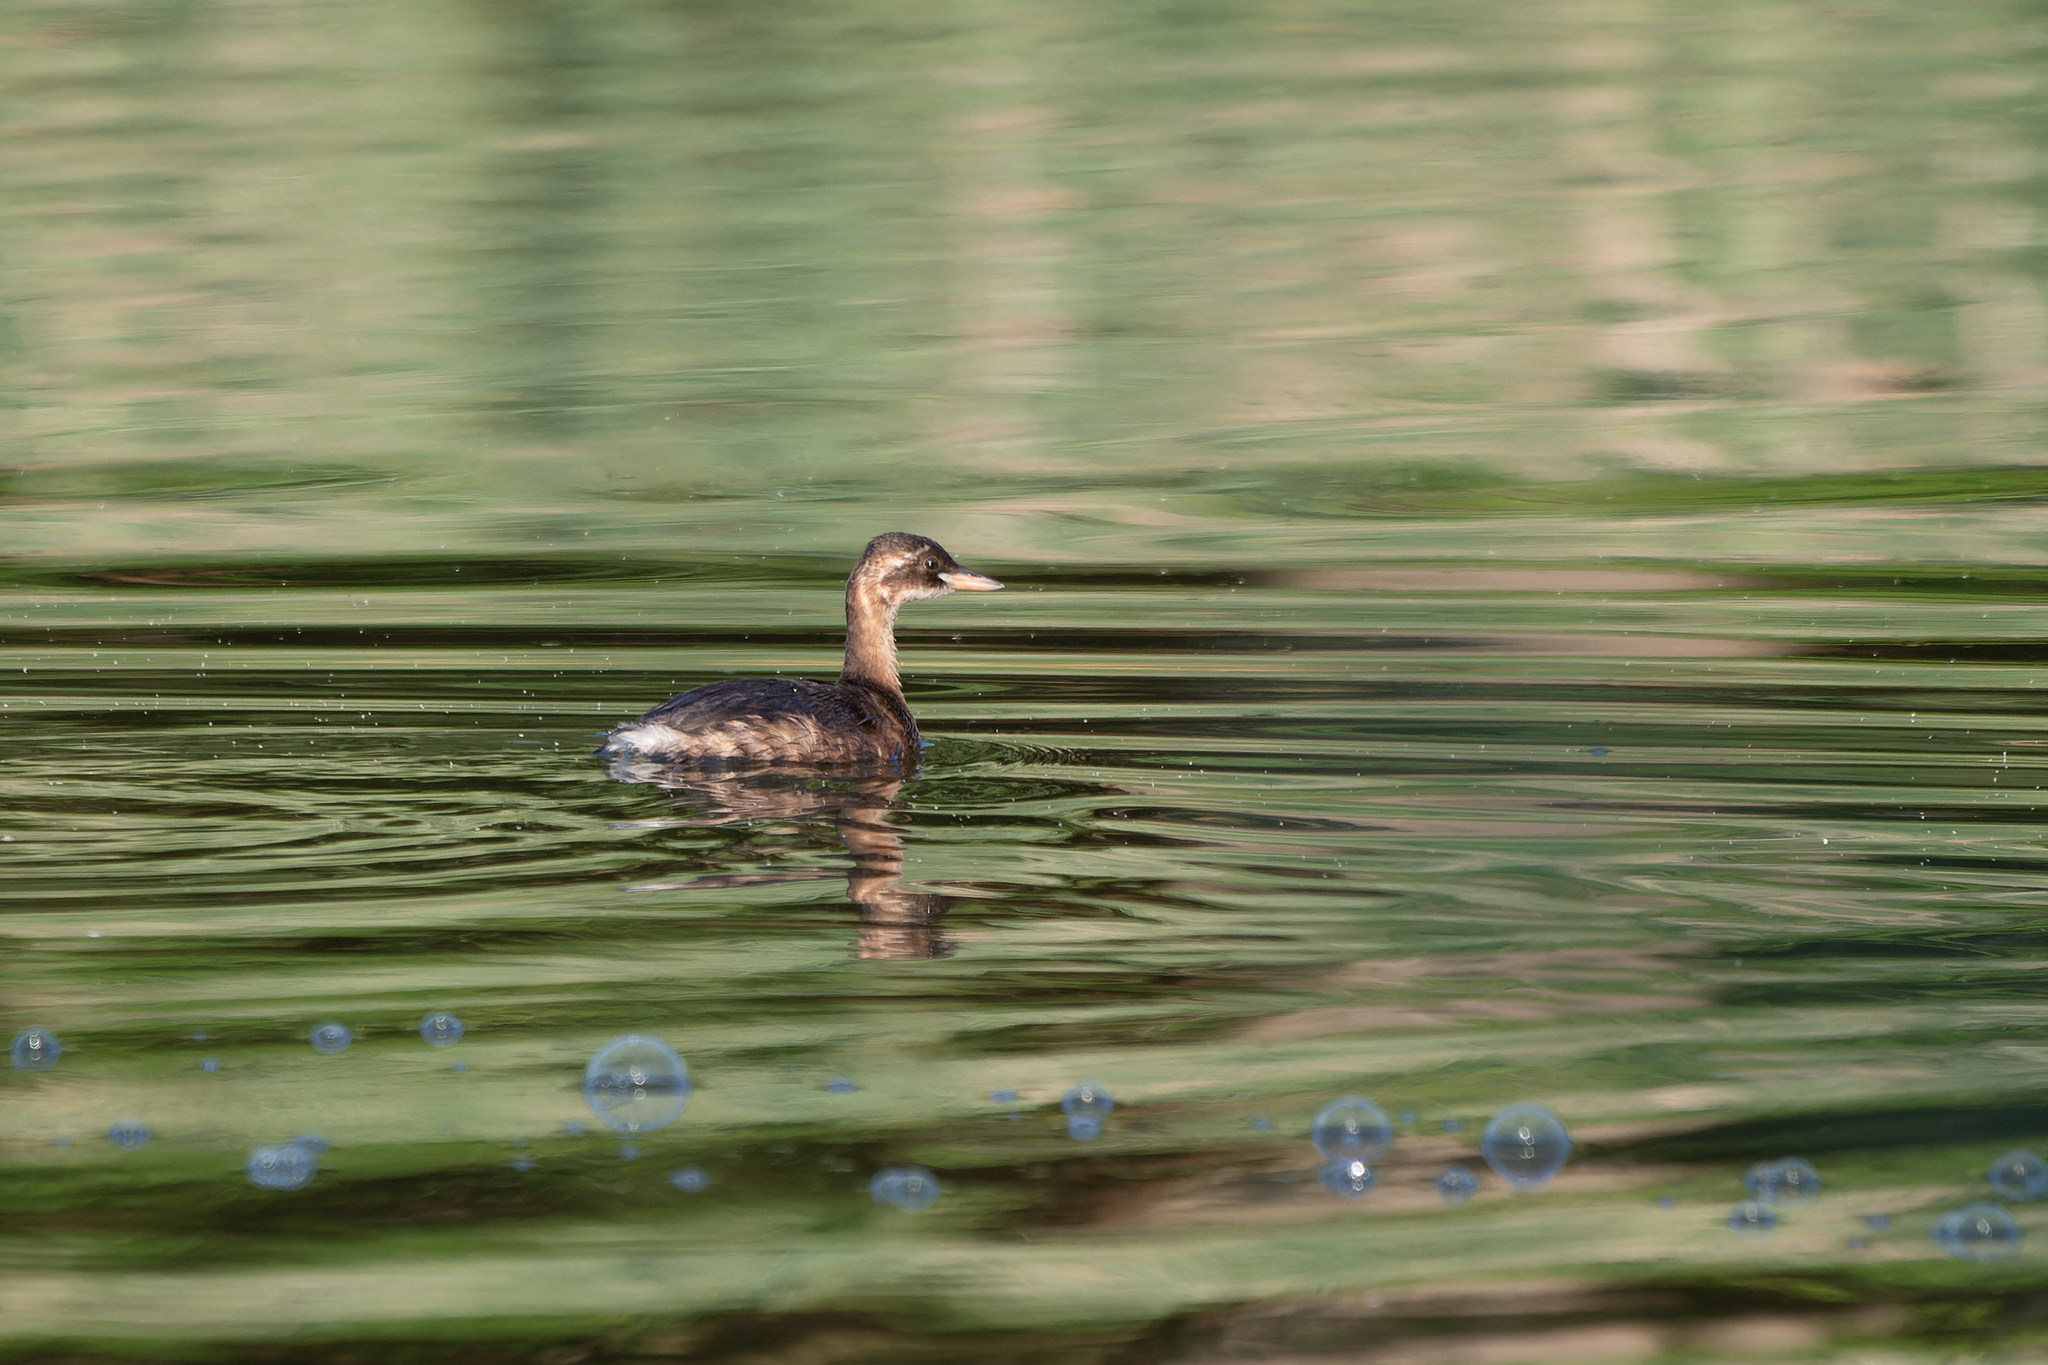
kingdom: Animalia
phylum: Chordata
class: Aves
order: Podicipediformes
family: Podicipedidae
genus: Tachybaptus
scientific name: Tachybaptus ruficollis
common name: Little grebe
